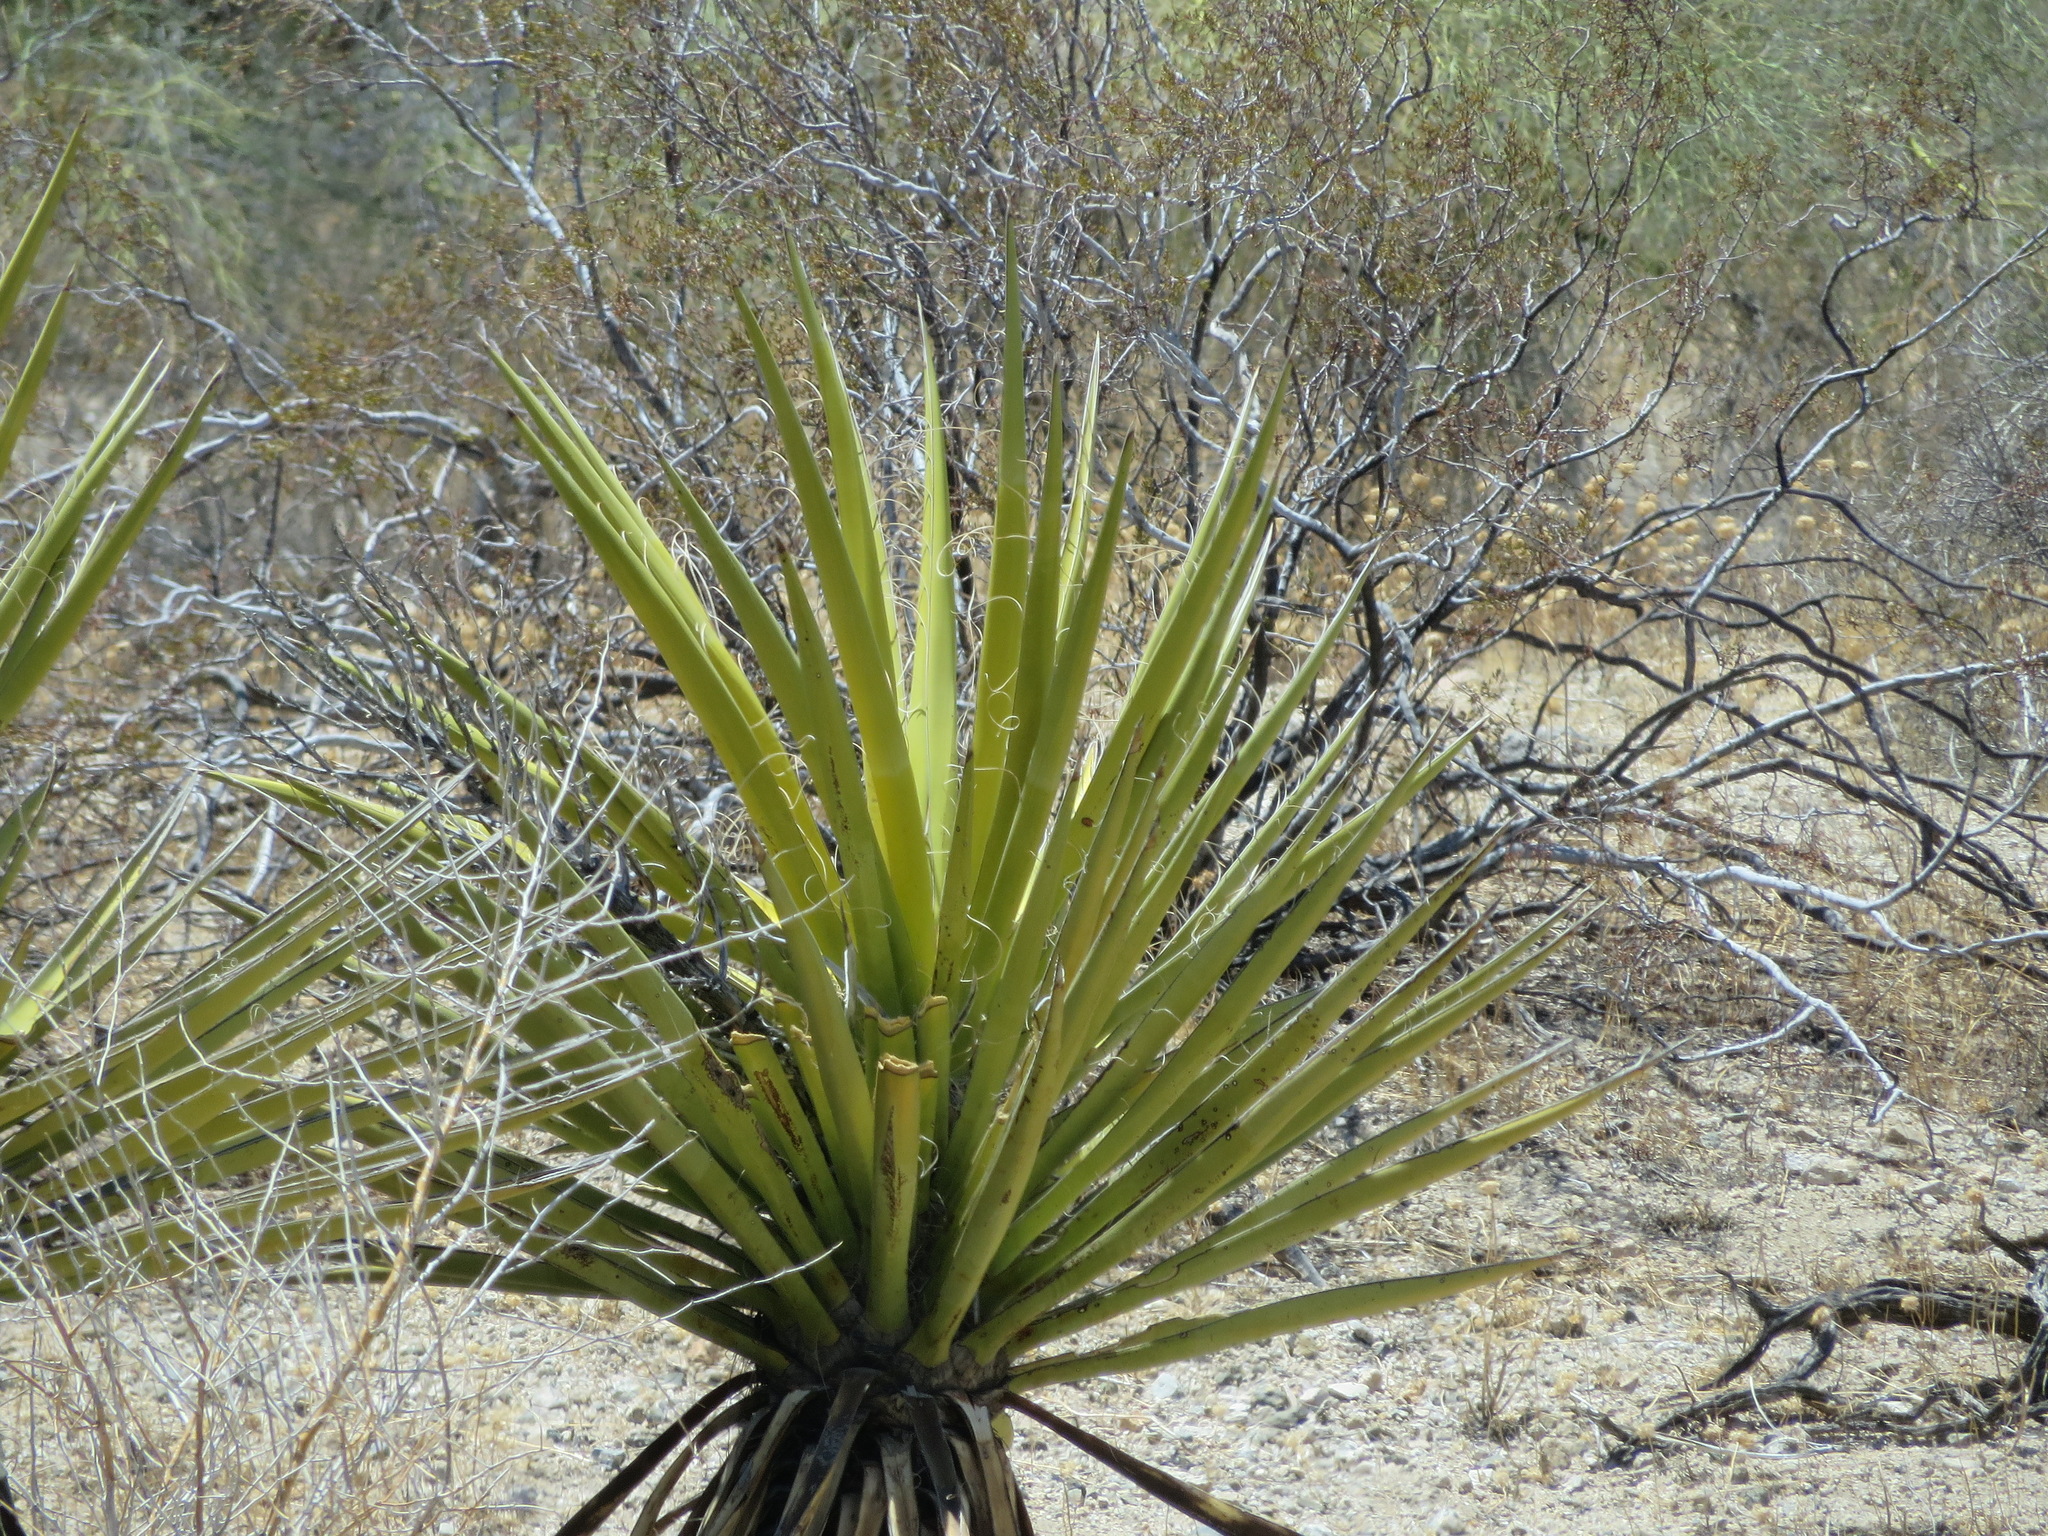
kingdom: Plantae
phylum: Tracheophyta
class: Liliopsida
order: Asparagales
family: Asparagaceae
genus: Yucca
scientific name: Yucca schidigera
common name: Mojave yucca
